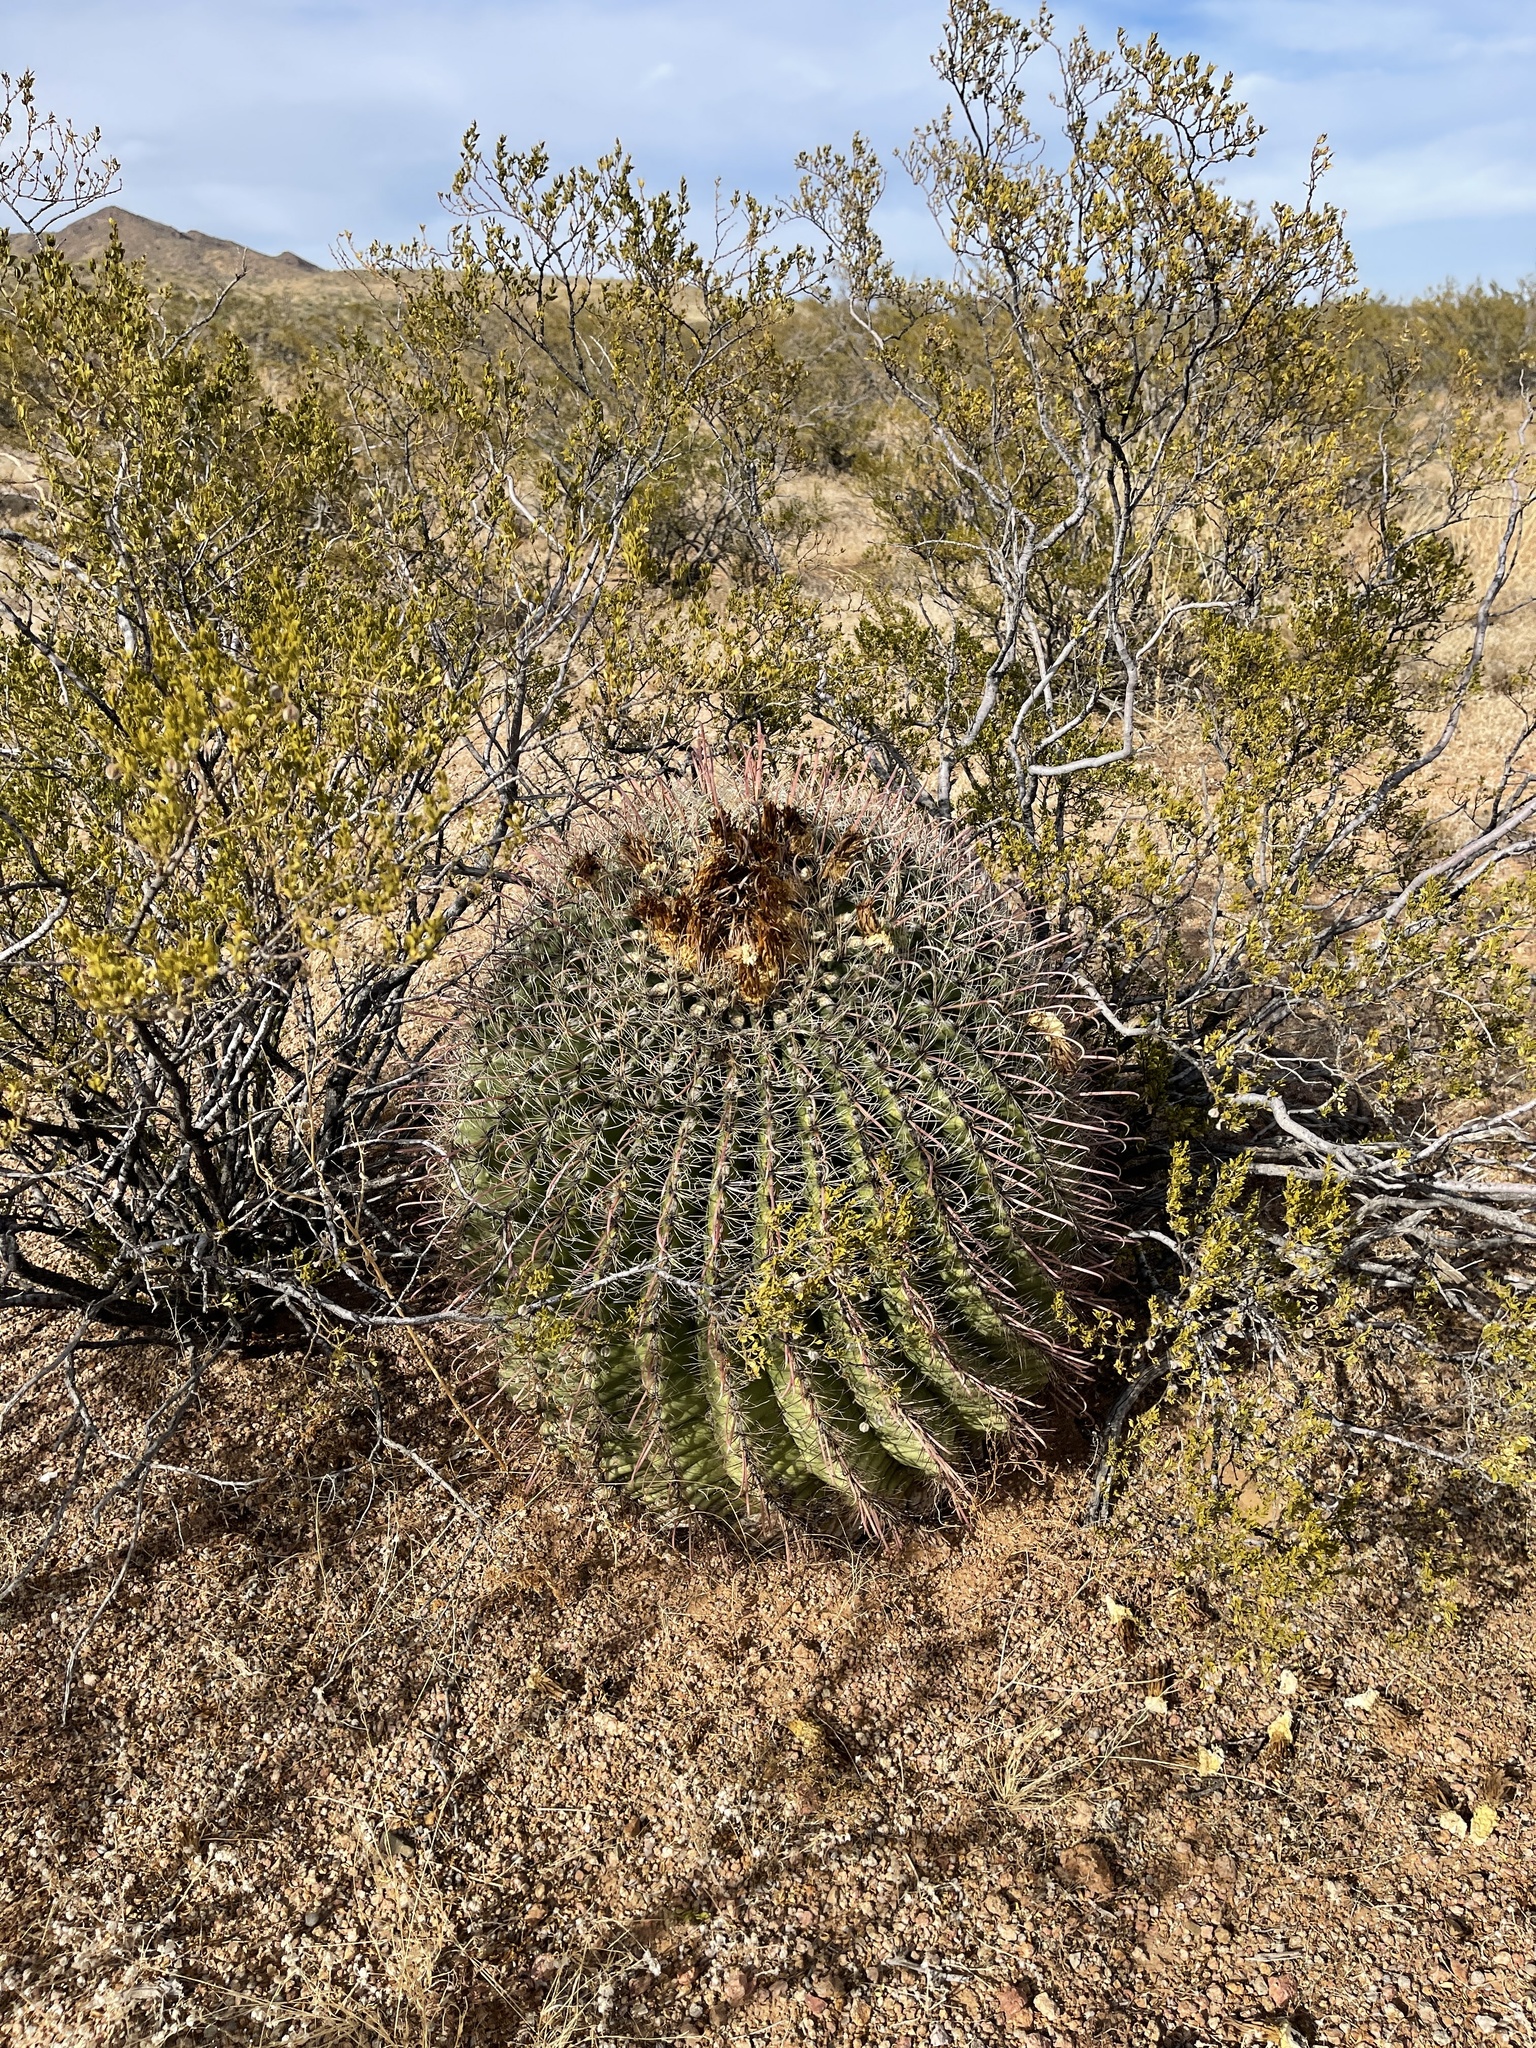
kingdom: Plantae
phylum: Tracheophyta
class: Magnoliopsida
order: Caryophyllales
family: Cactaceae
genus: Ferocactus
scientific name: Ferocactus wislizeni
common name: Candy barrel cactus
